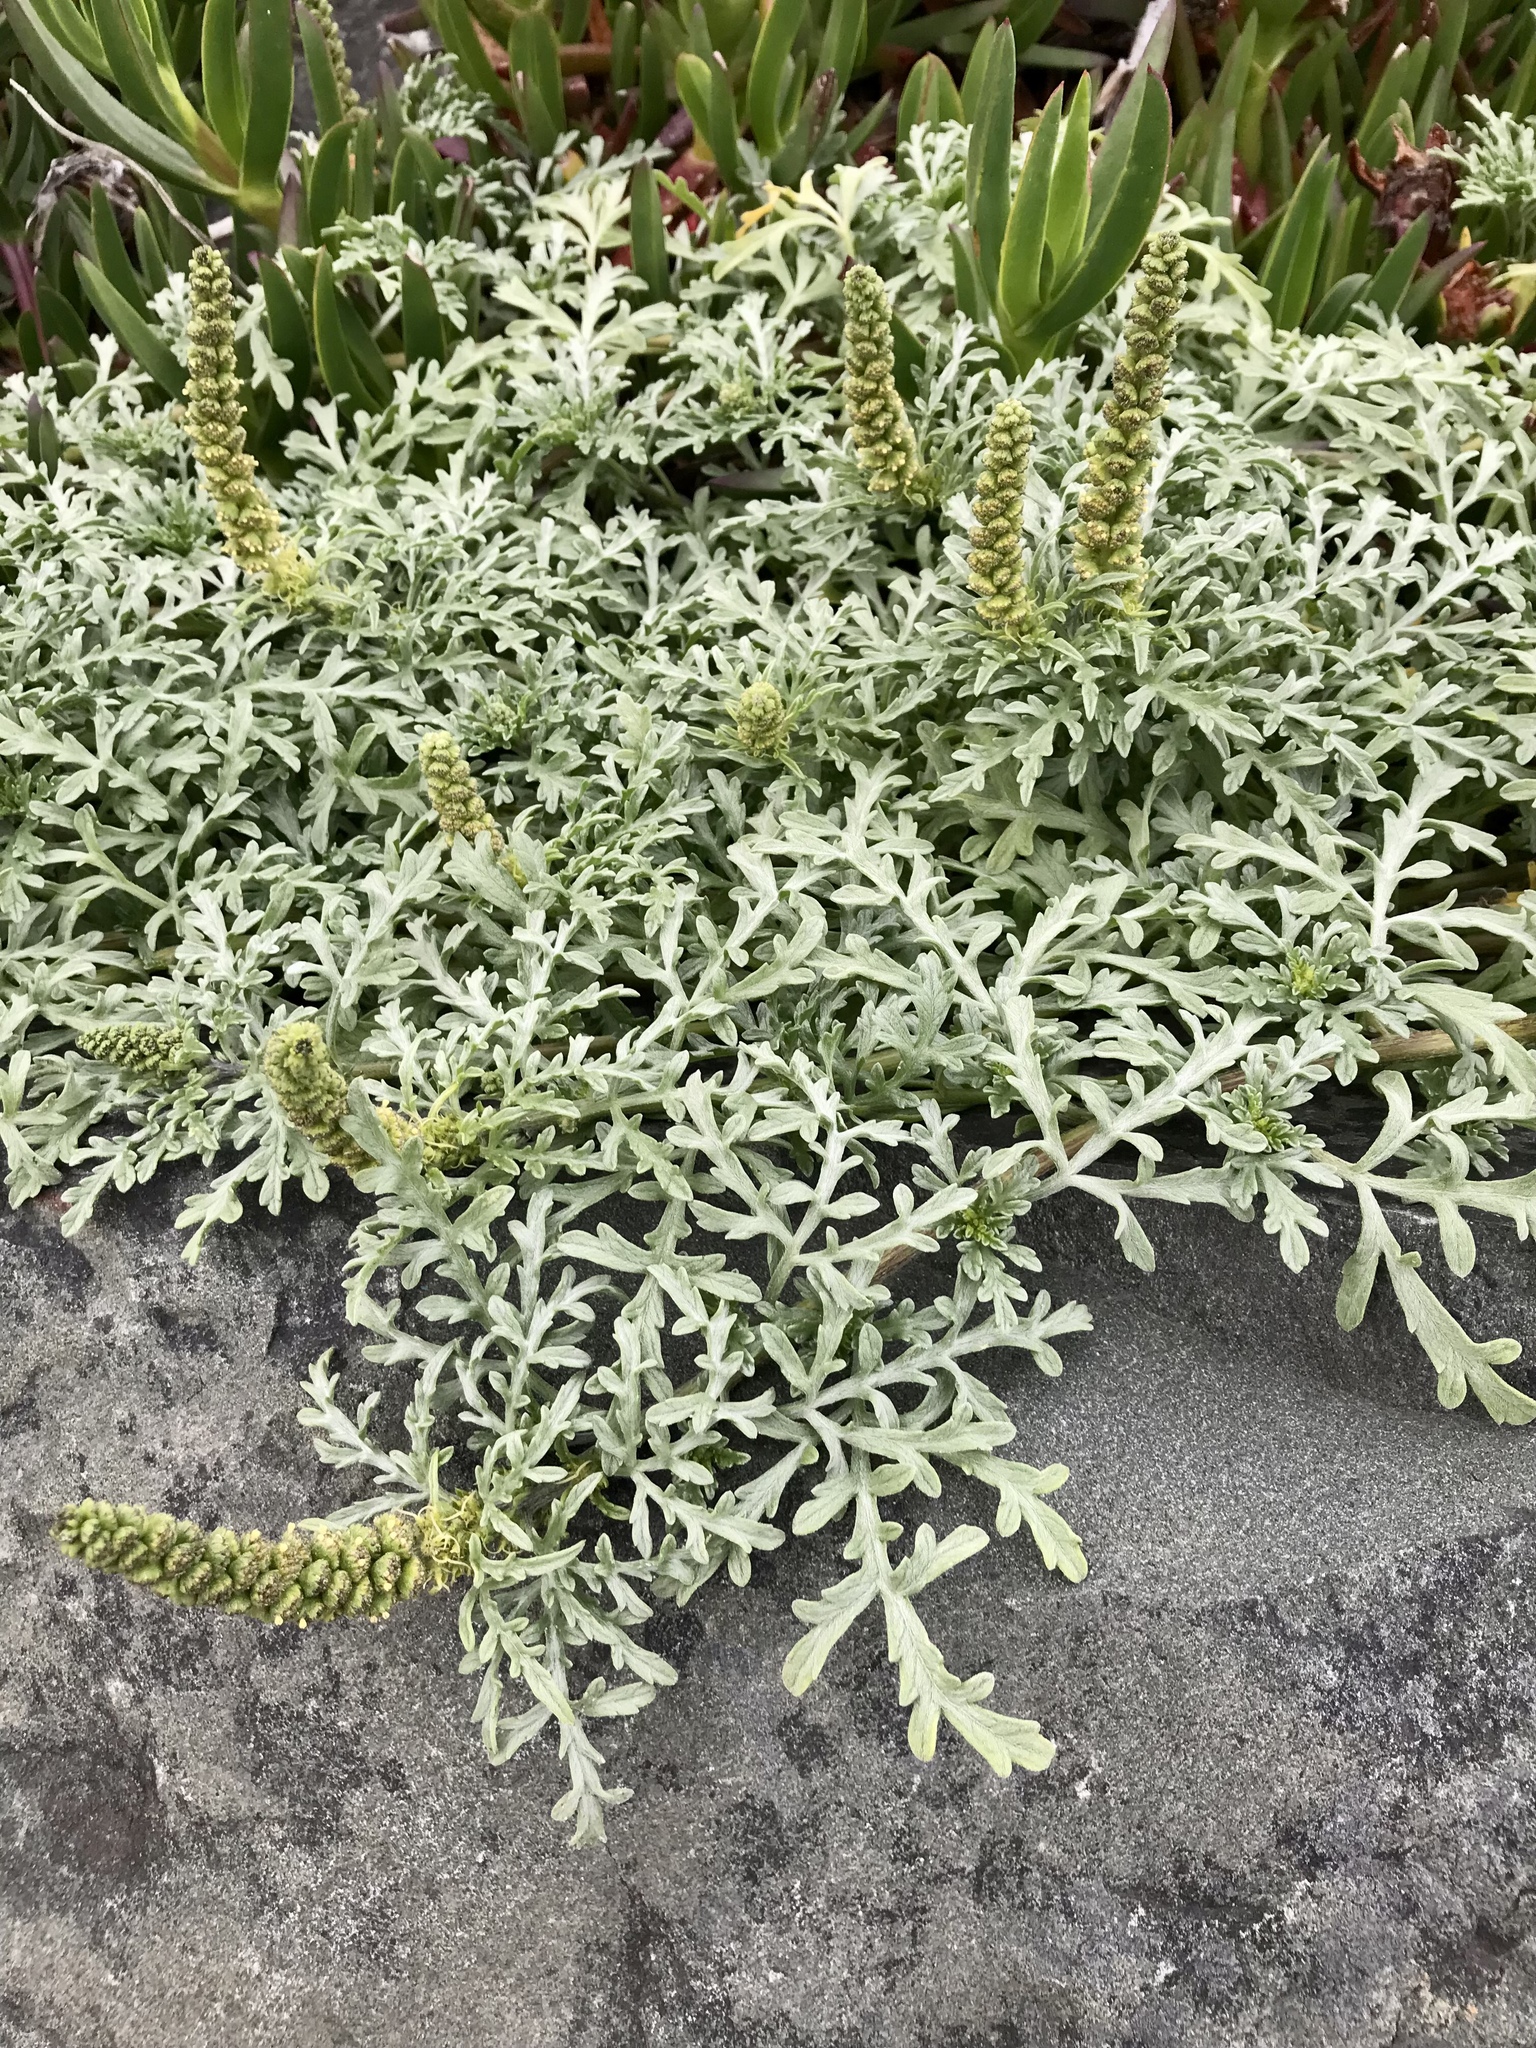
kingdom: Plantae
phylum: Tracheophyta
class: Magnoliopsida
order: Asterales
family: Asteraceae
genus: Ambrosia
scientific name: Ambrosia chamissonis
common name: Beachbur
